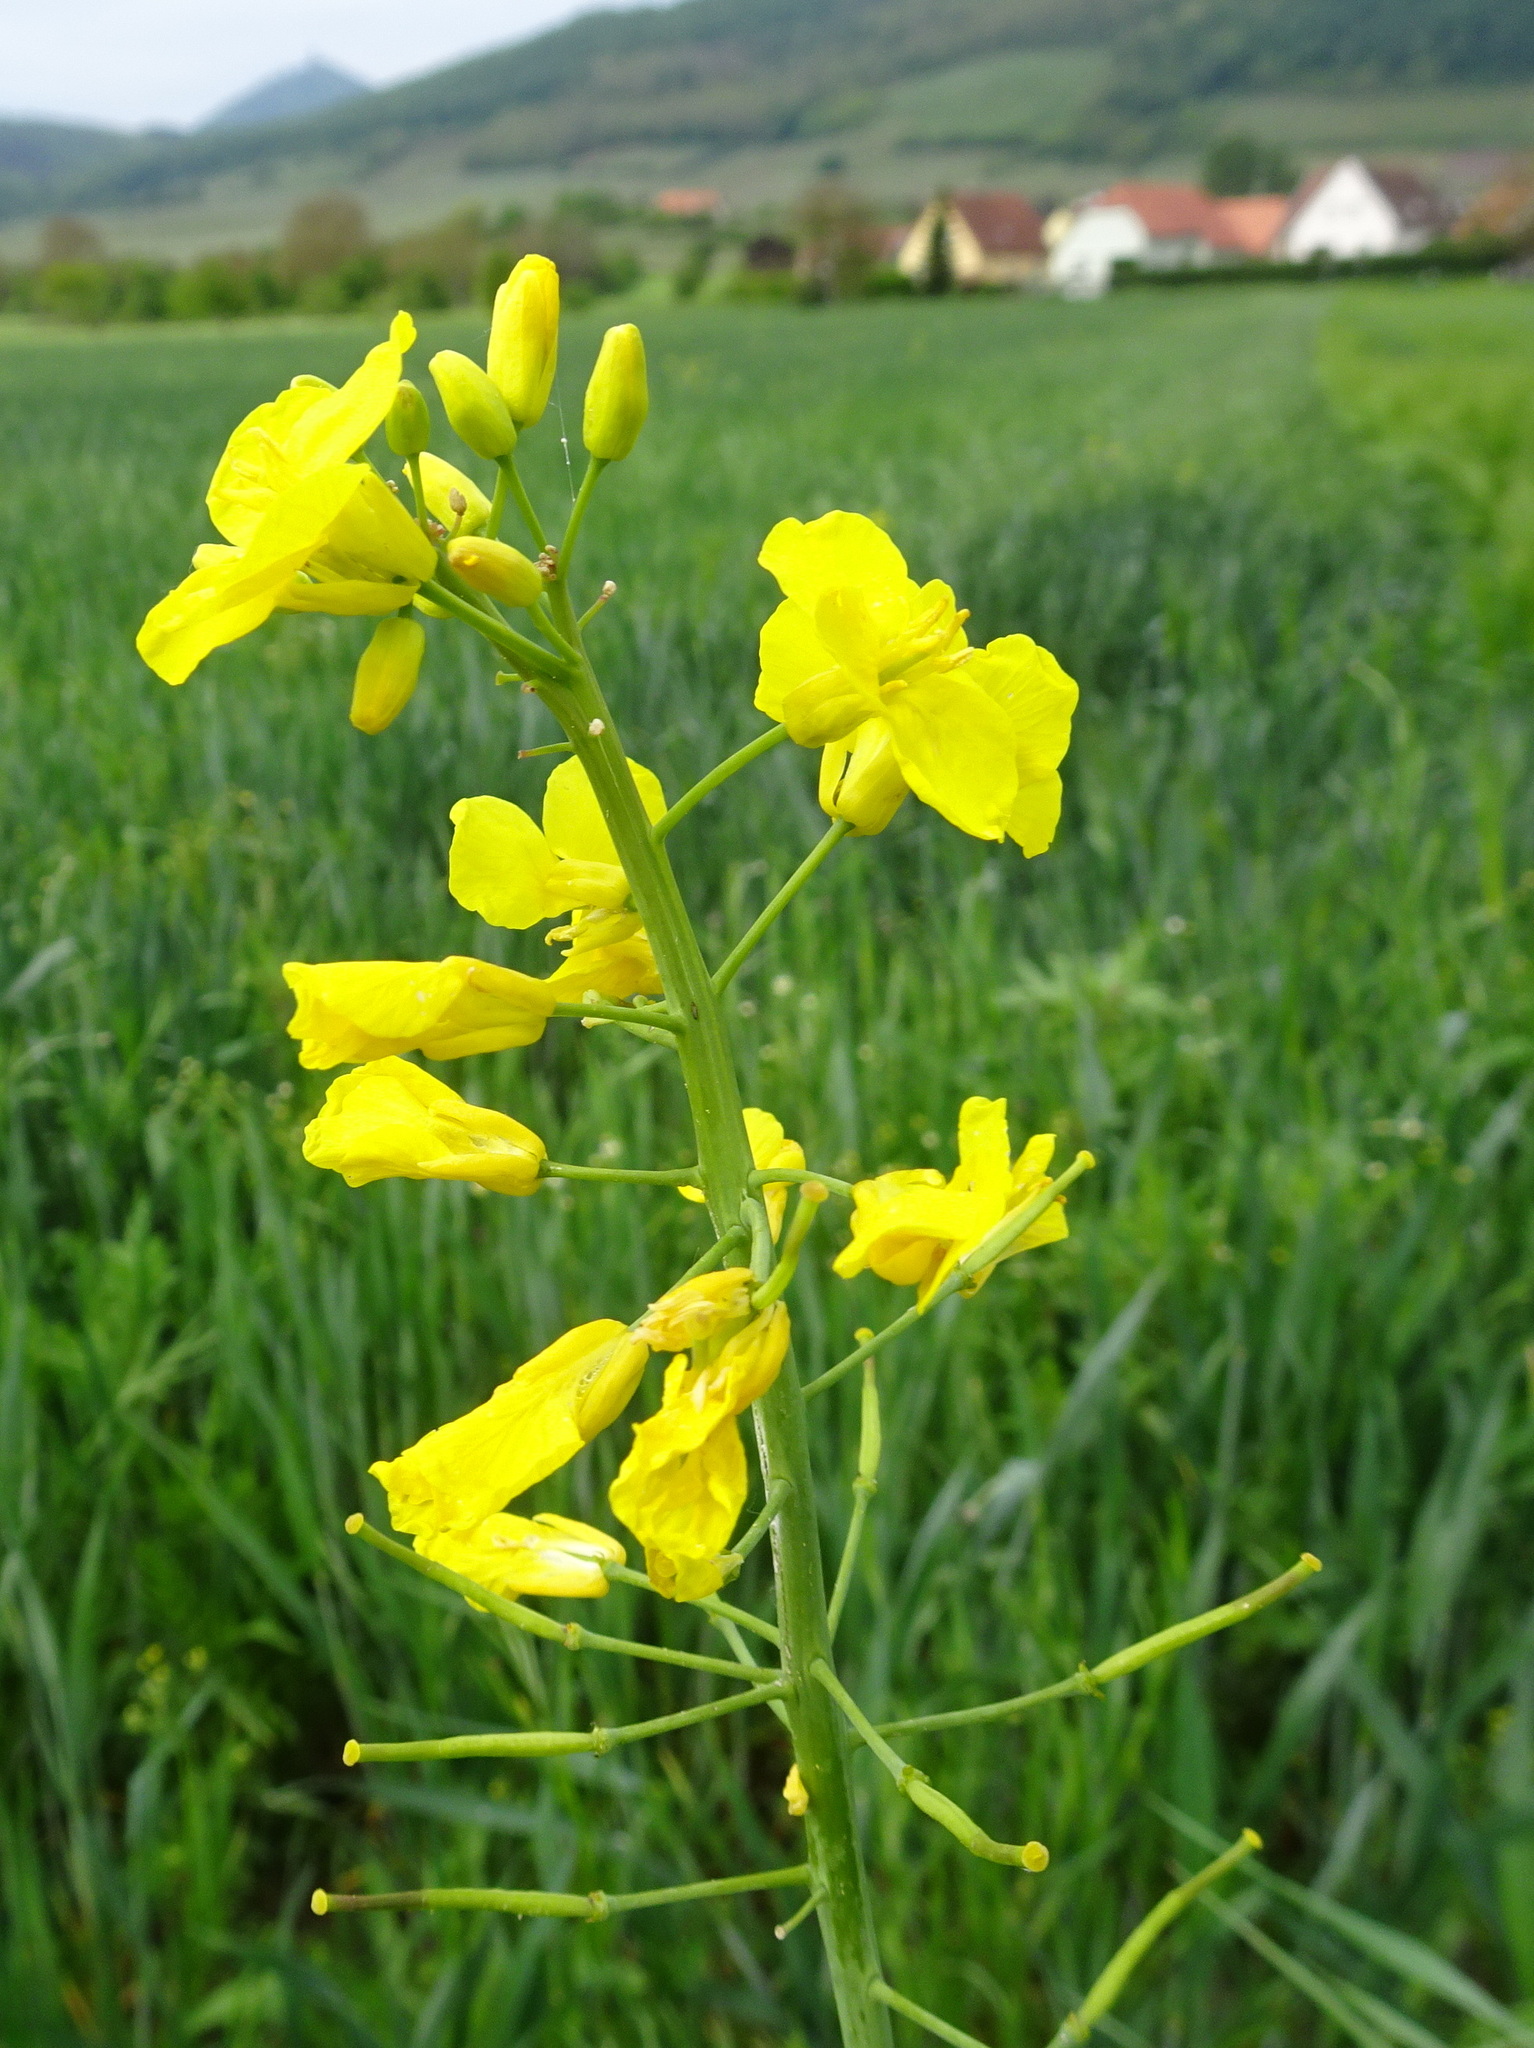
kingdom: Plantae
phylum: Tracheophyta
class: Magnoliopsida
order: Brassicales
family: Brassicaceae
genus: Brassica
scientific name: Brassica napus
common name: Rape
